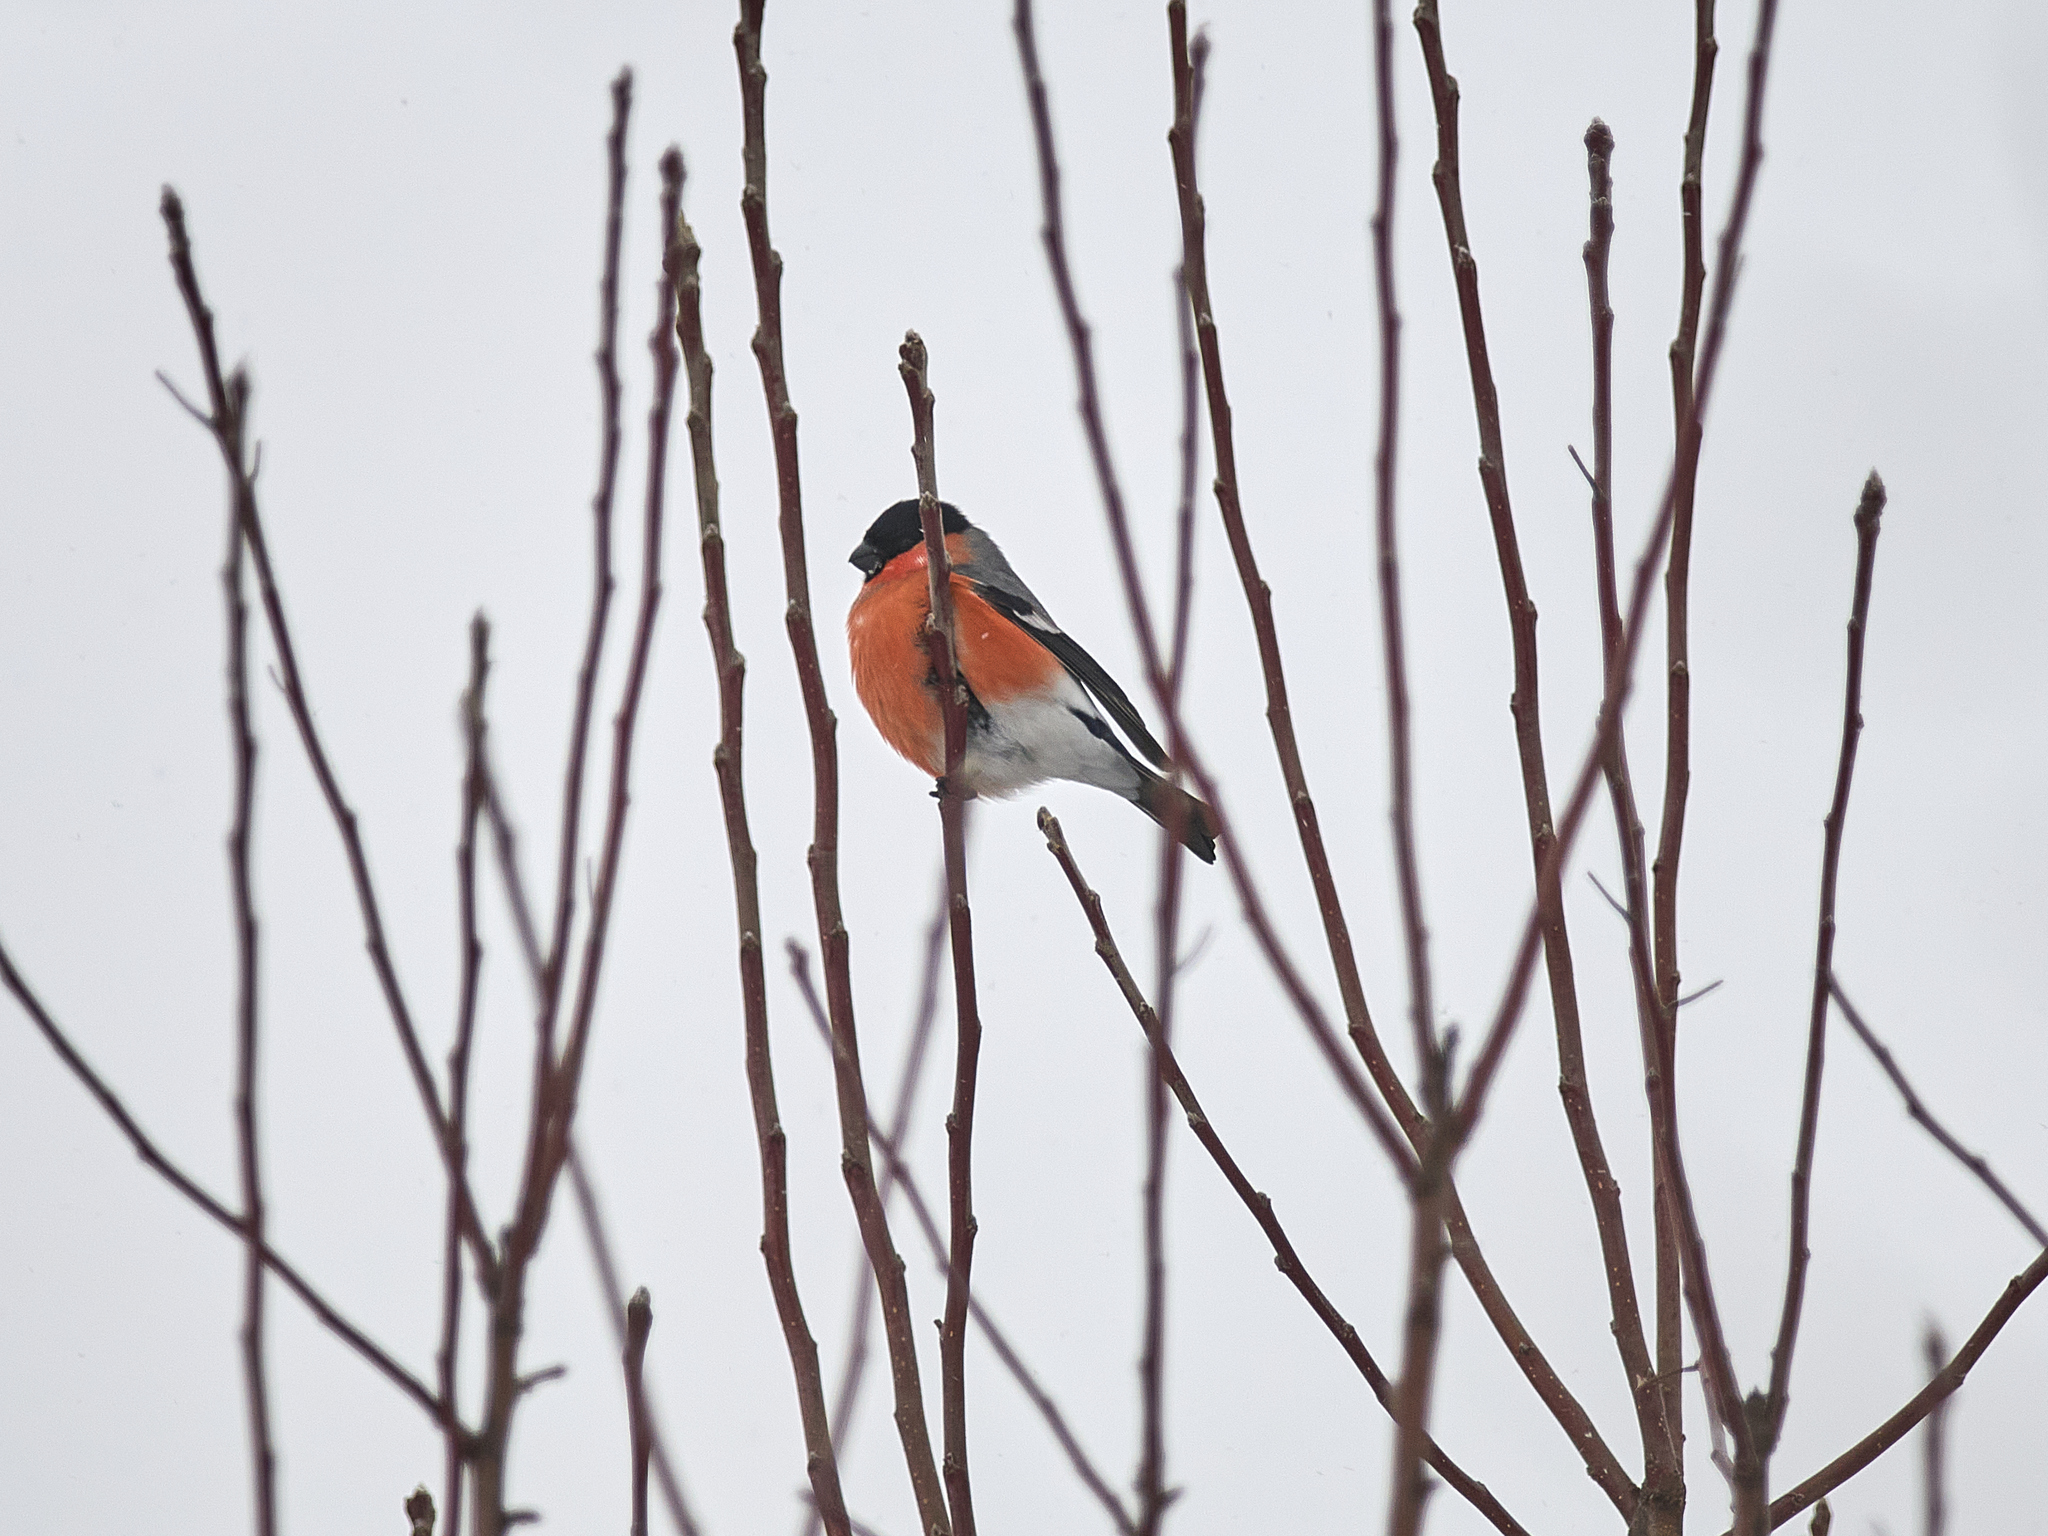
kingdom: Animalia
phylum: Chordata
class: Aves
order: Passeriformes
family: Fringillidae
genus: Pyrrhula
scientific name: Pyrrhula pyrrhula
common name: Eurasian bullfinch
